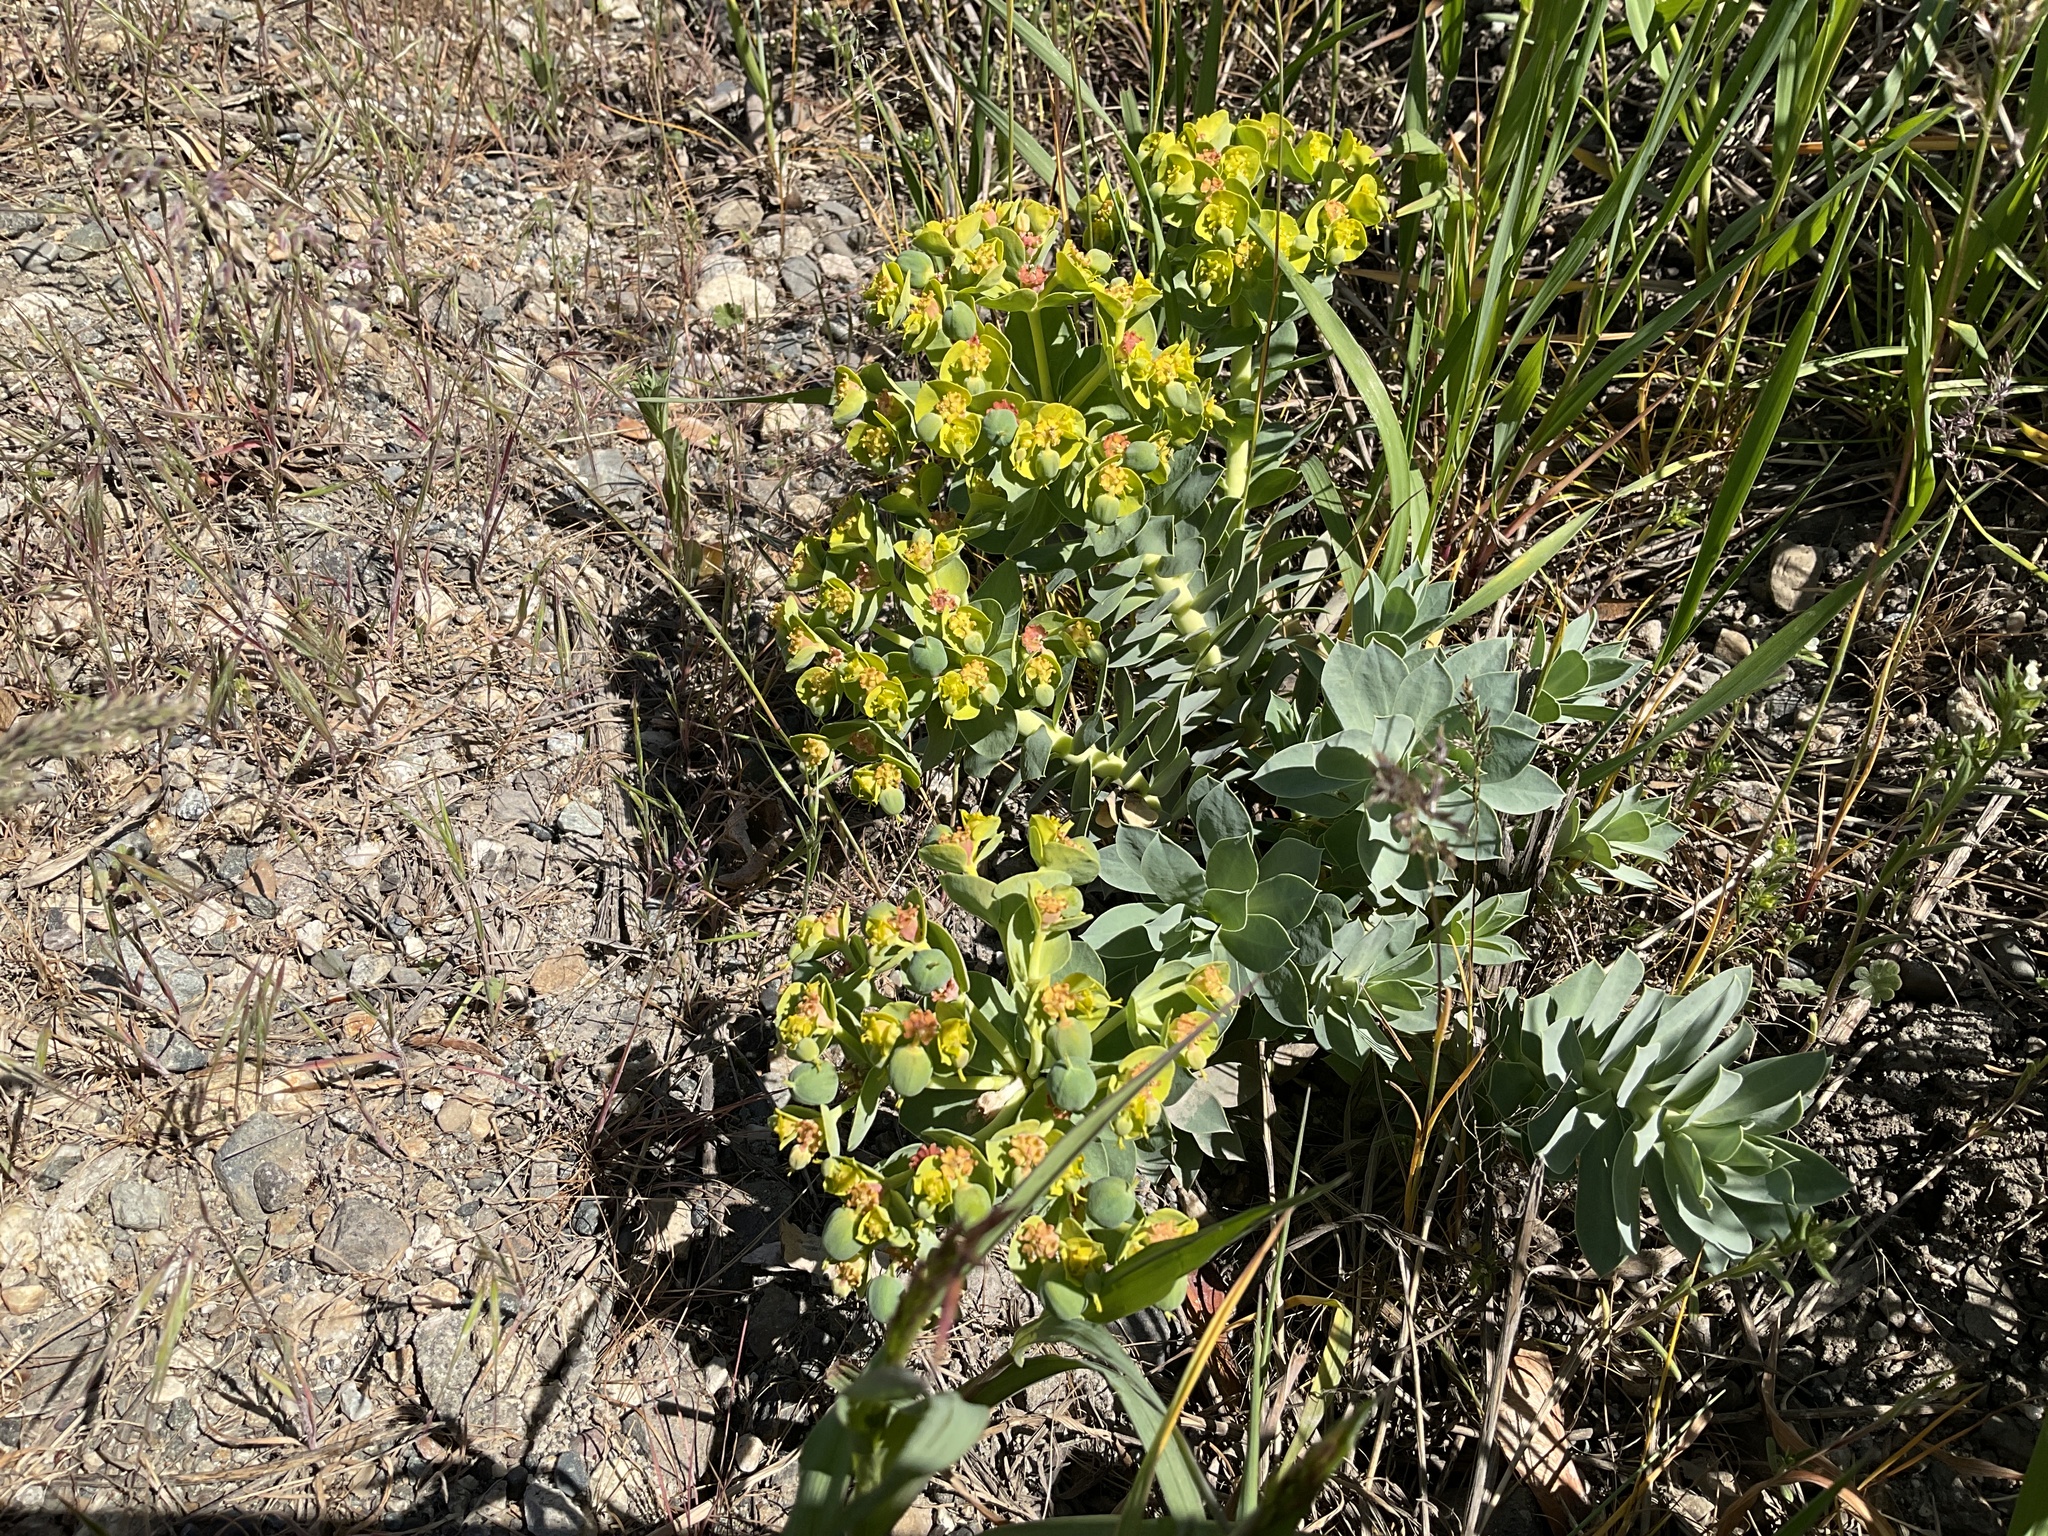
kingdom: Plantae
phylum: Tracheophyta
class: Magnoliopsida
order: Malpighiales
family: Euphorbiaceae
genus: Euphorbia
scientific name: Euphorbia myrsinites
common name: Myrtle spurge
